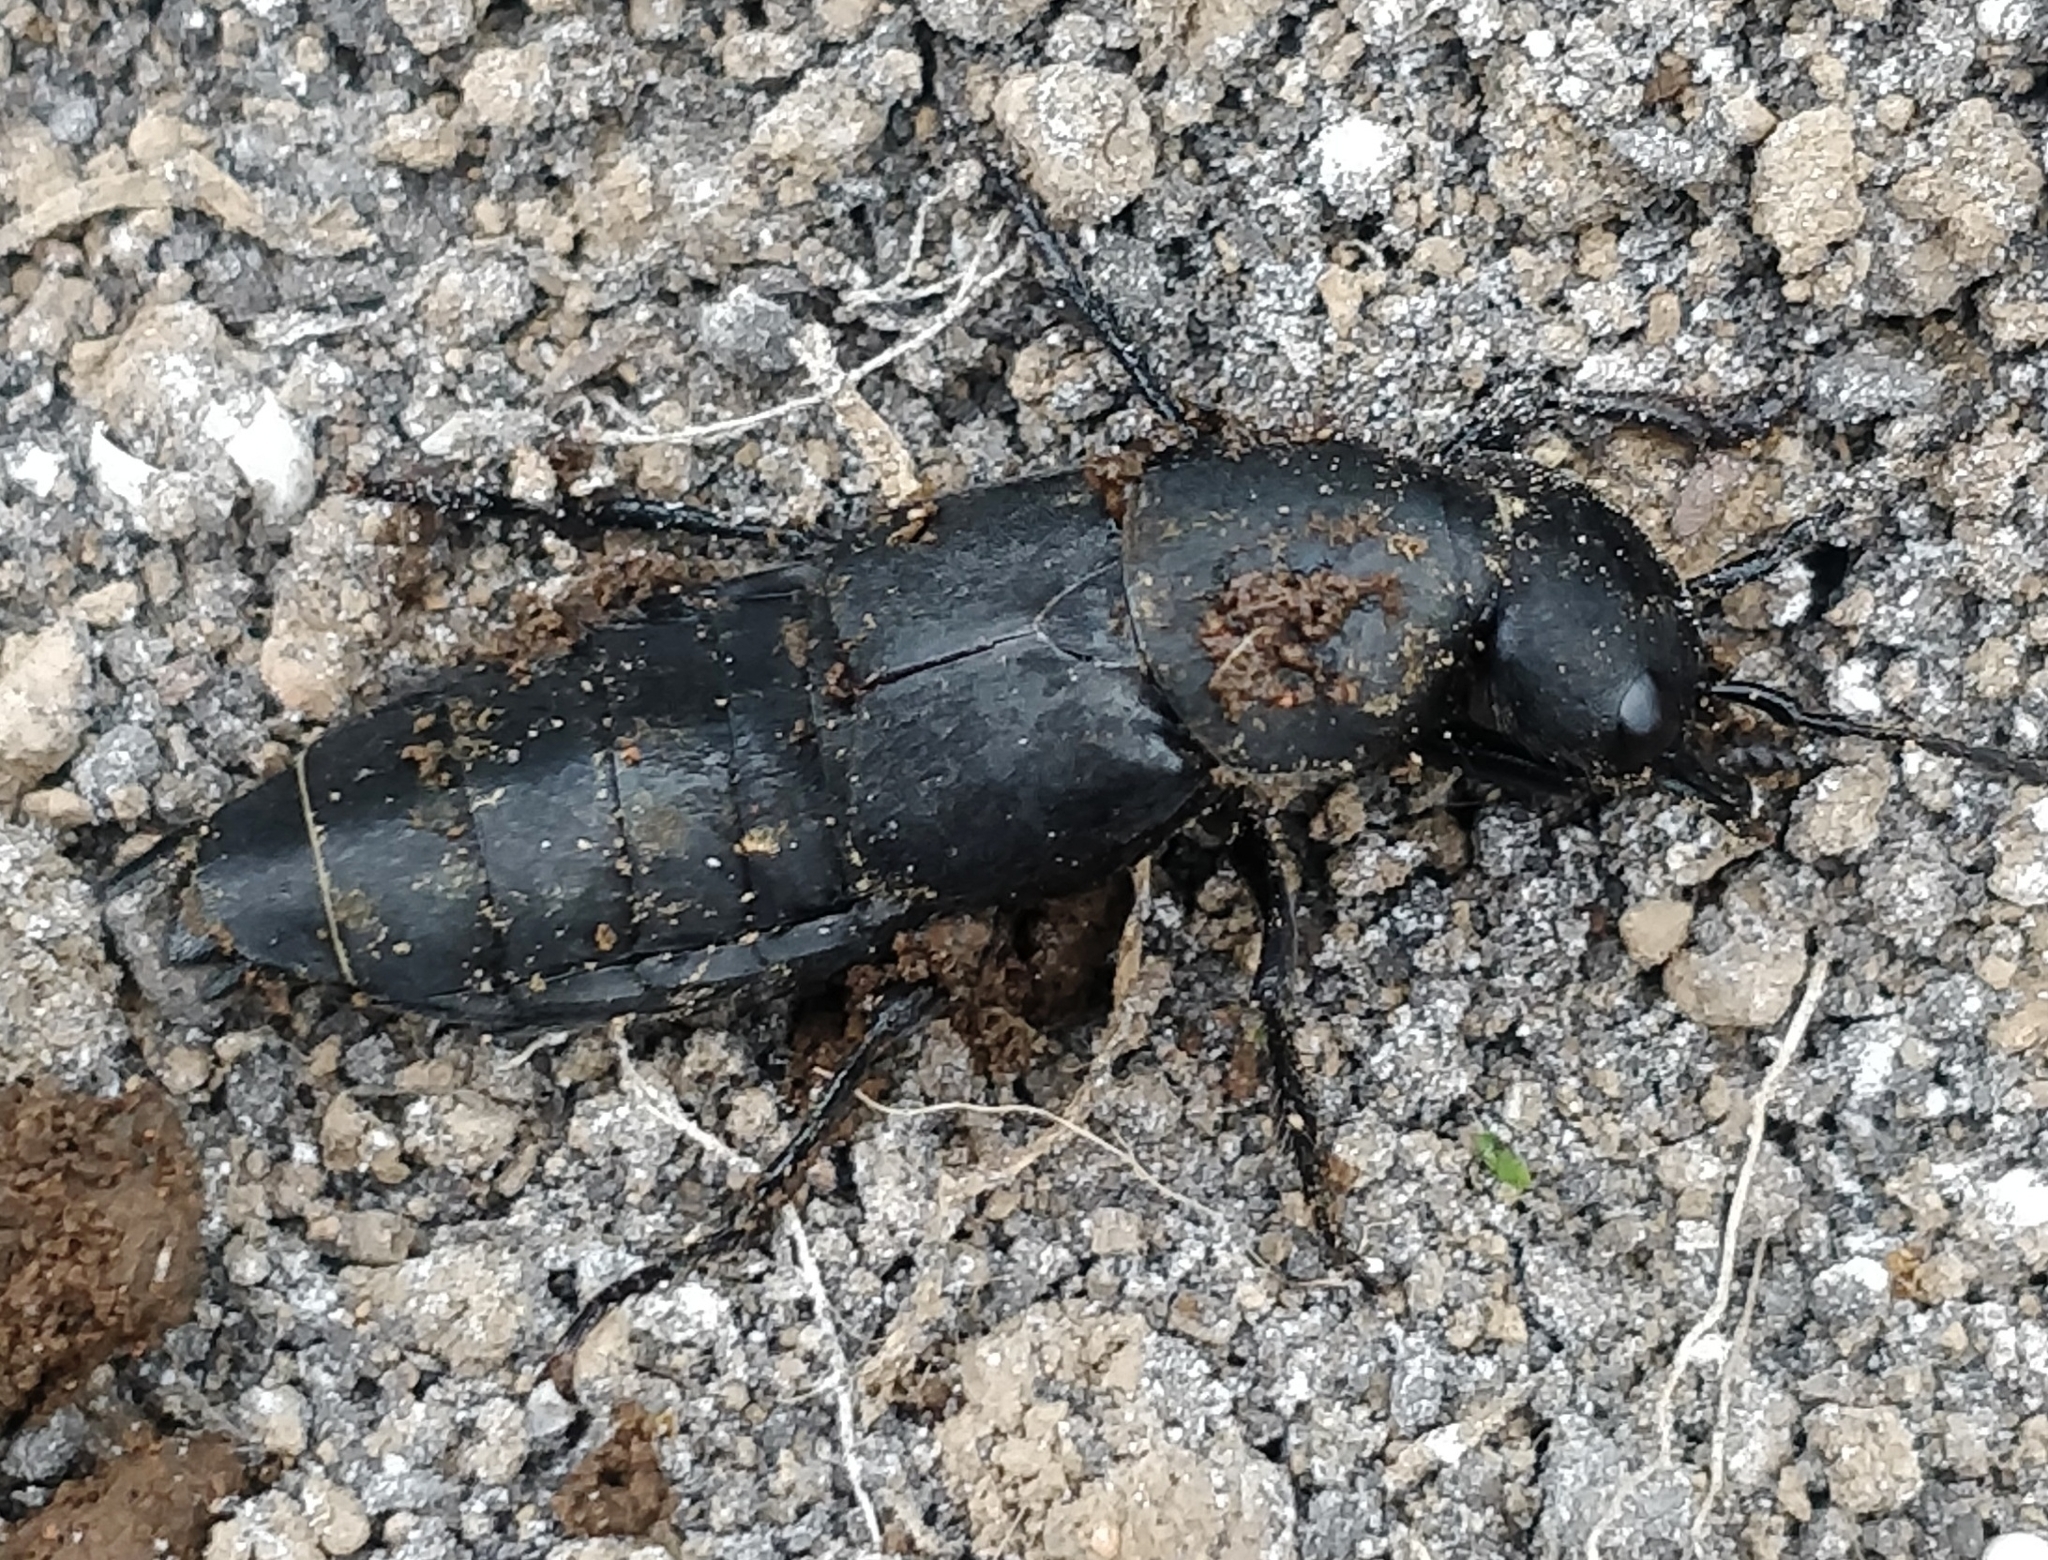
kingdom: Animalia
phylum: Arthropoda
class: Insecta
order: Coleoptera
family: Staphylinidae
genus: Ocypus
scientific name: Ocypus olens
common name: Devil's coach-horse
